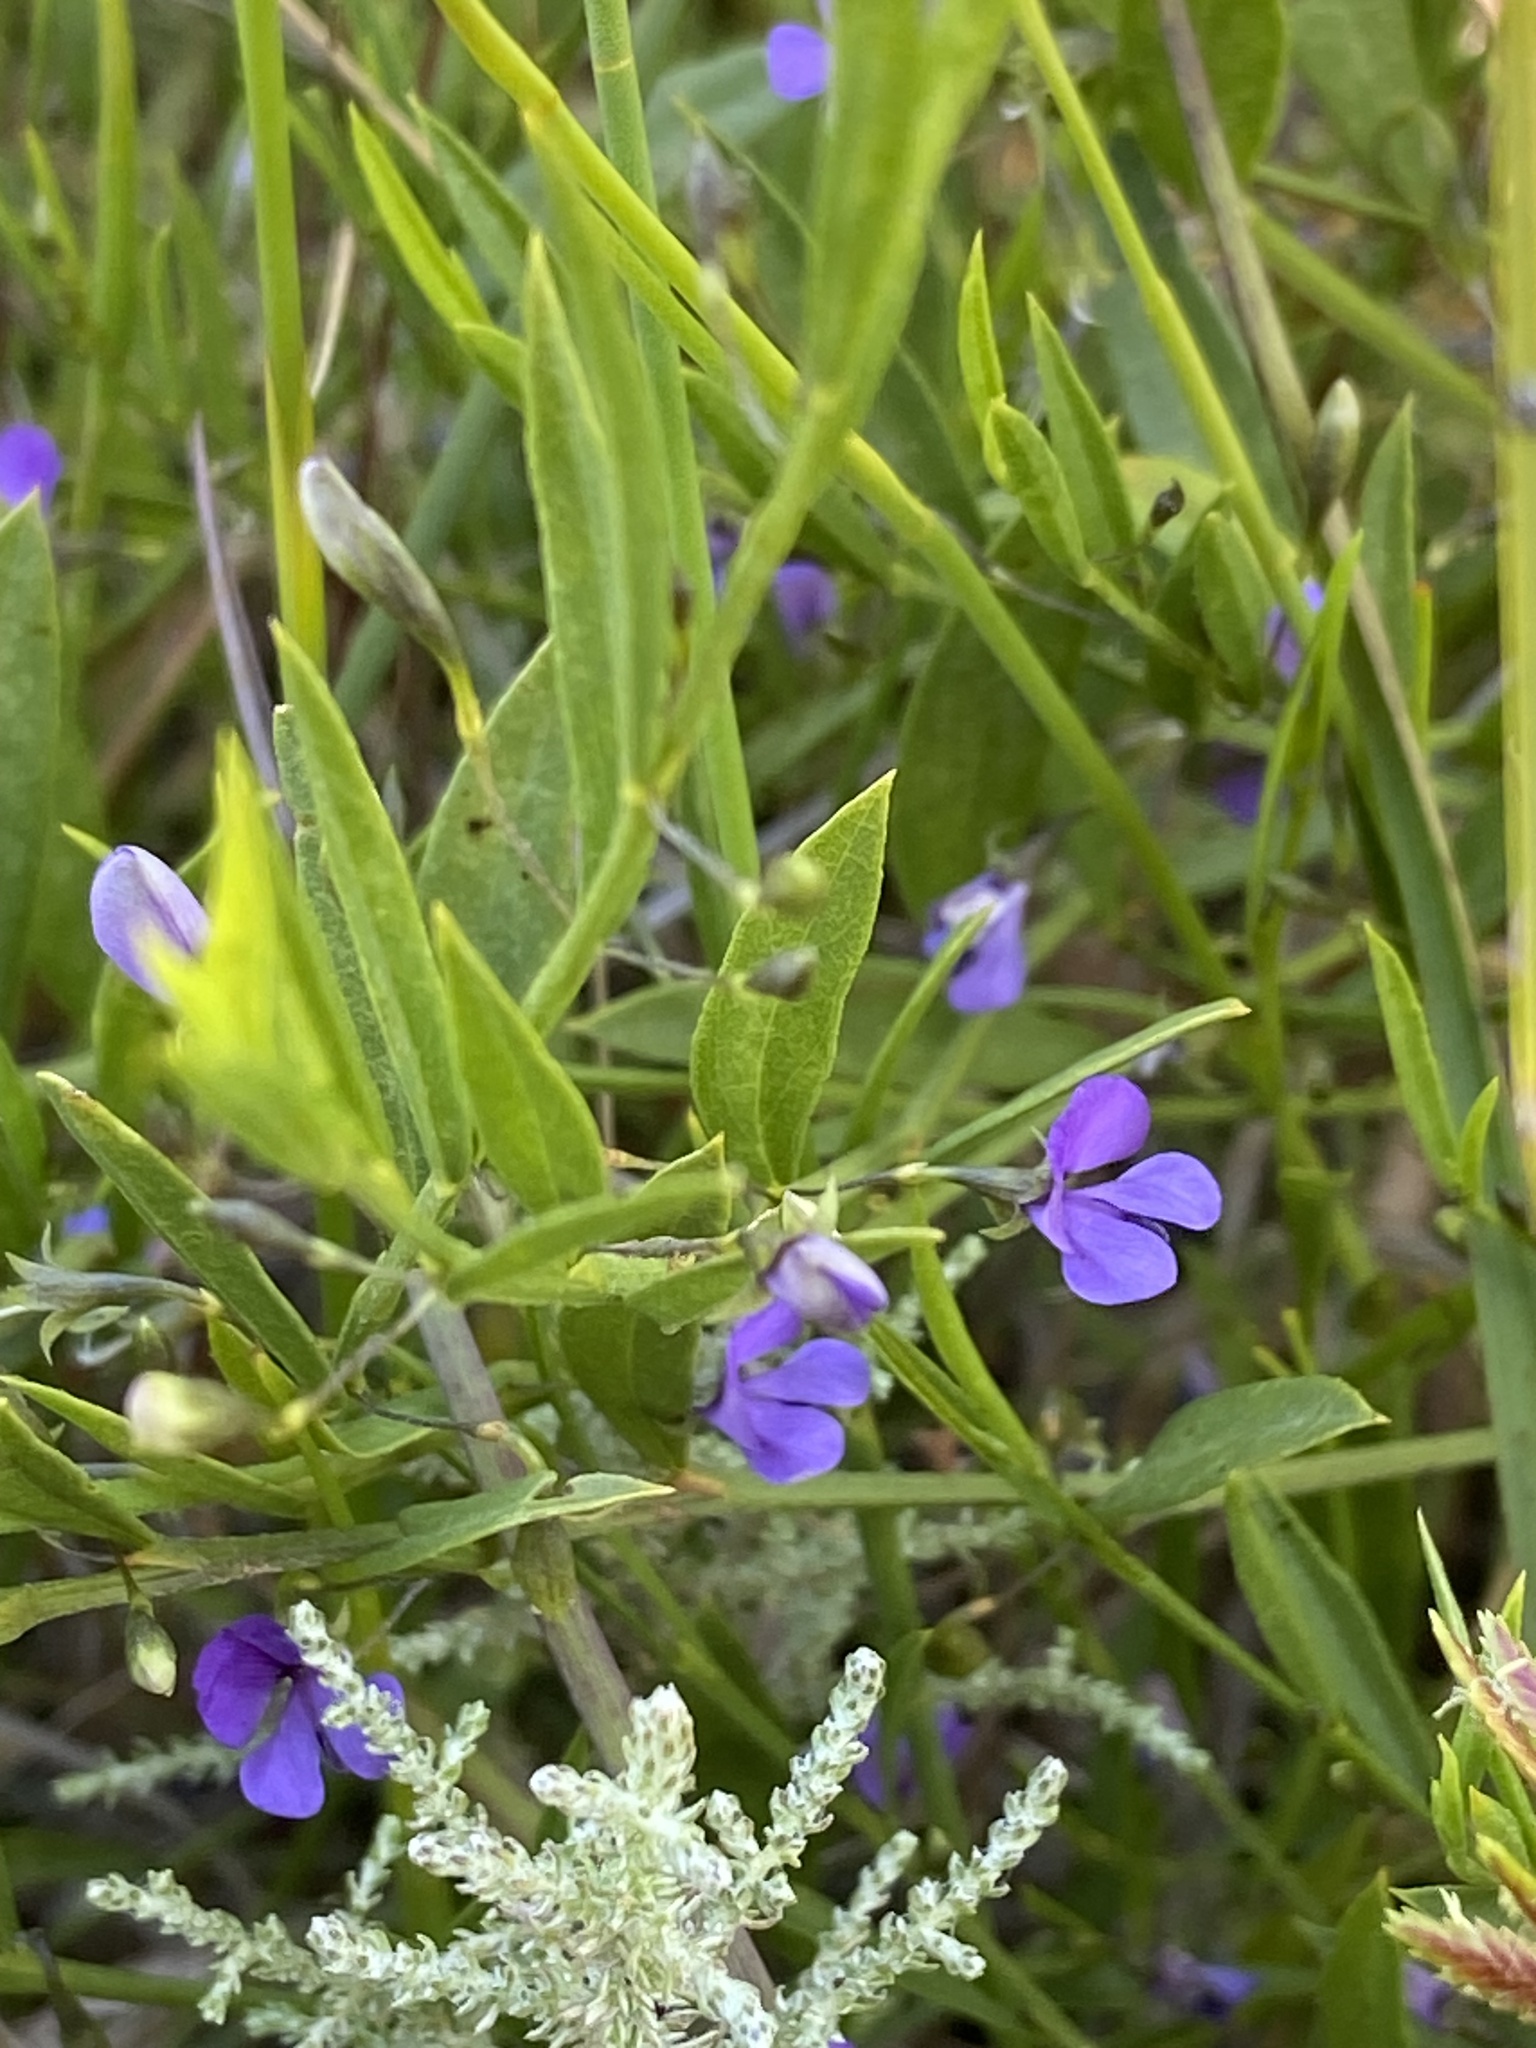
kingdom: Plantae
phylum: Tracheophyta
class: Magnoliopsida
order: Fabales
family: Fabaceae
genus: Psoralea
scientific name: Psoralea laxa
